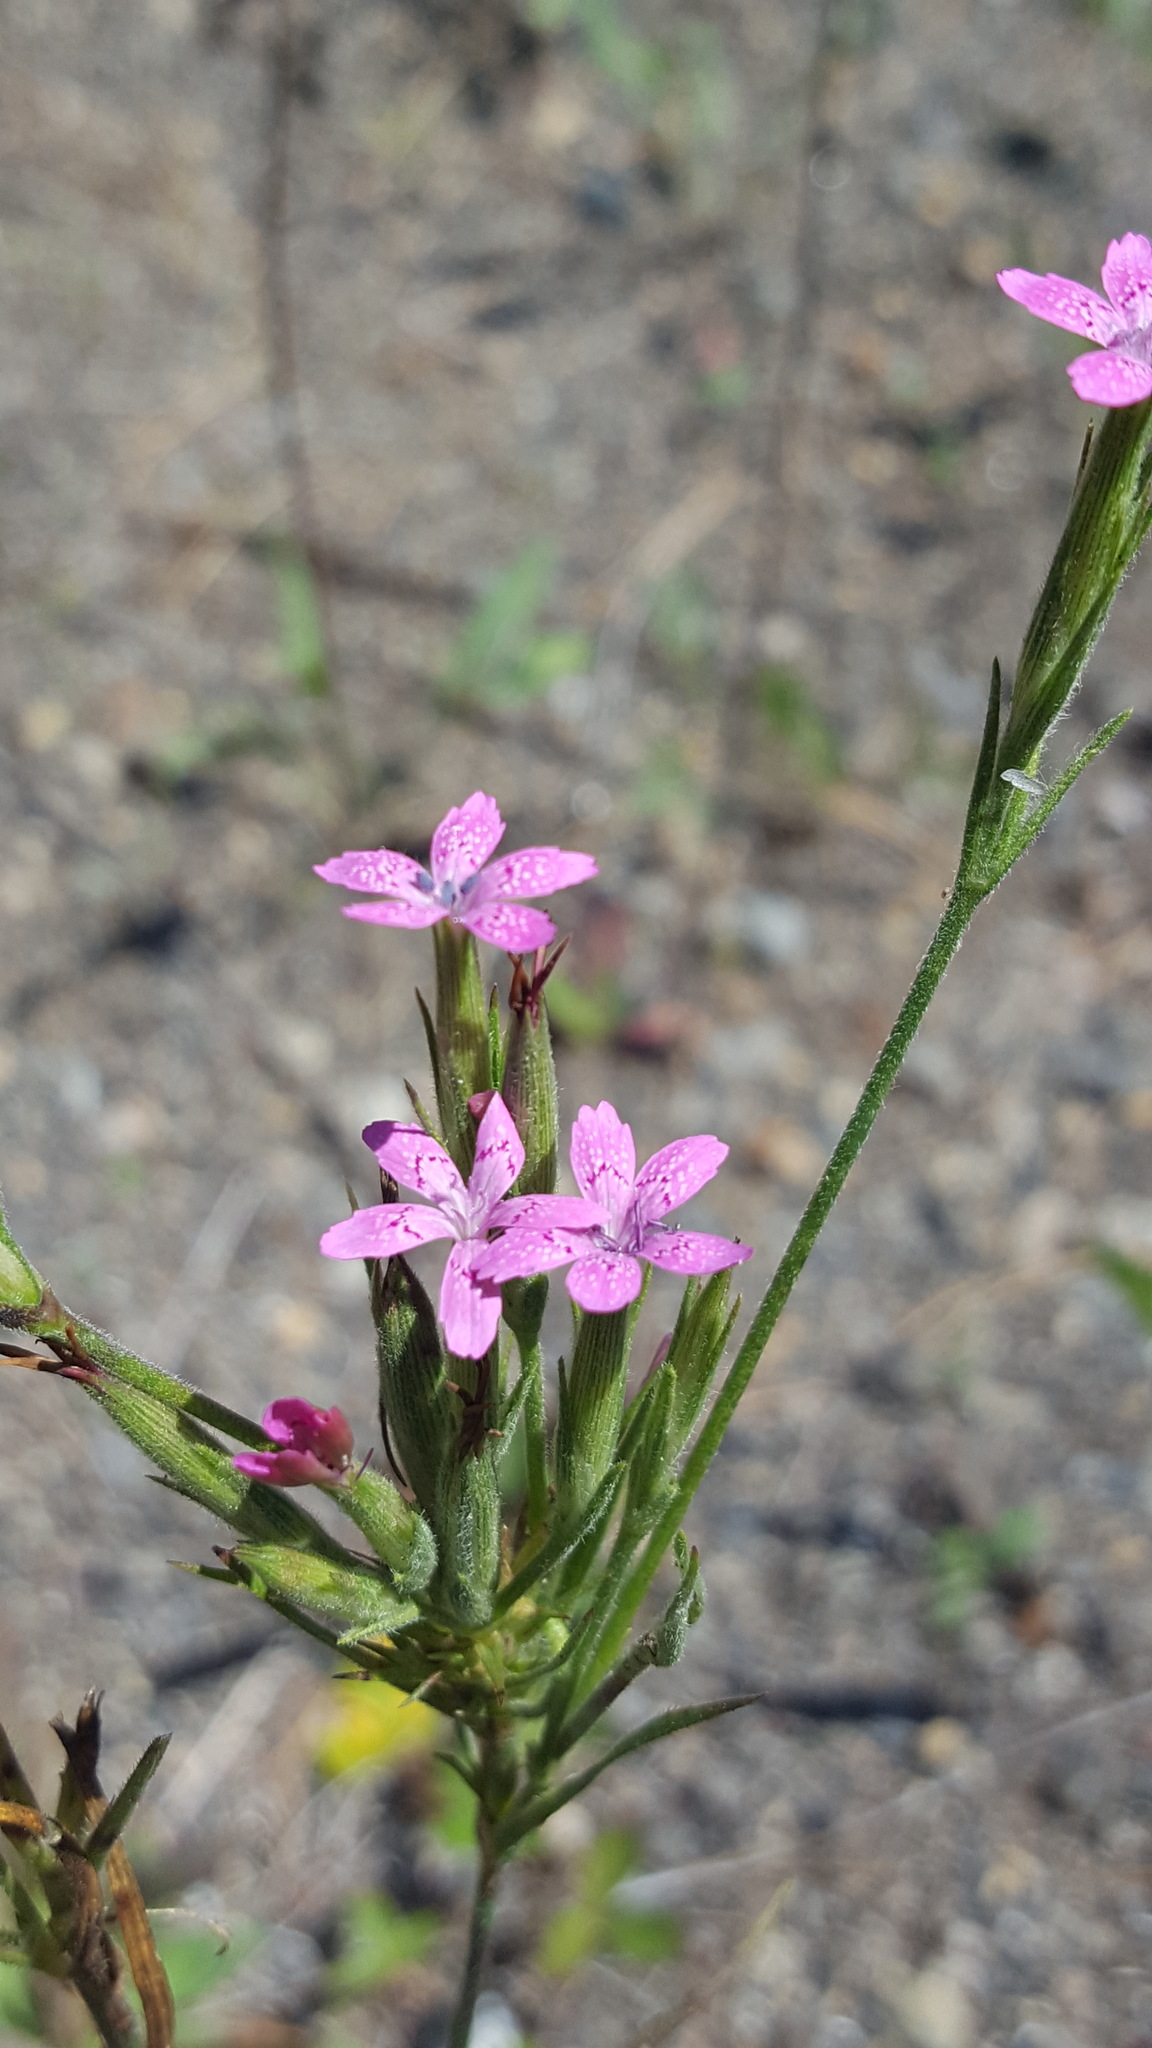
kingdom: Plantae
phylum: Tracheophyta
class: Magnoliopsida
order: Caryophyllales
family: Caryophyllaceae
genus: Dianthus
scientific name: Dianthus armeria
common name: Deptford pink
